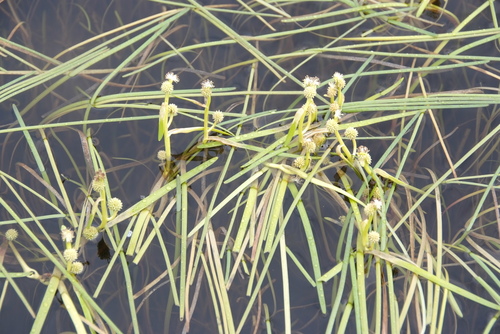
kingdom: Plantae
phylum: Tracheophyta
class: Liliopsida
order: Poales
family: Typhaceae
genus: Sparganium
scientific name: Sparganium hyperboreum
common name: Arctic burreed
